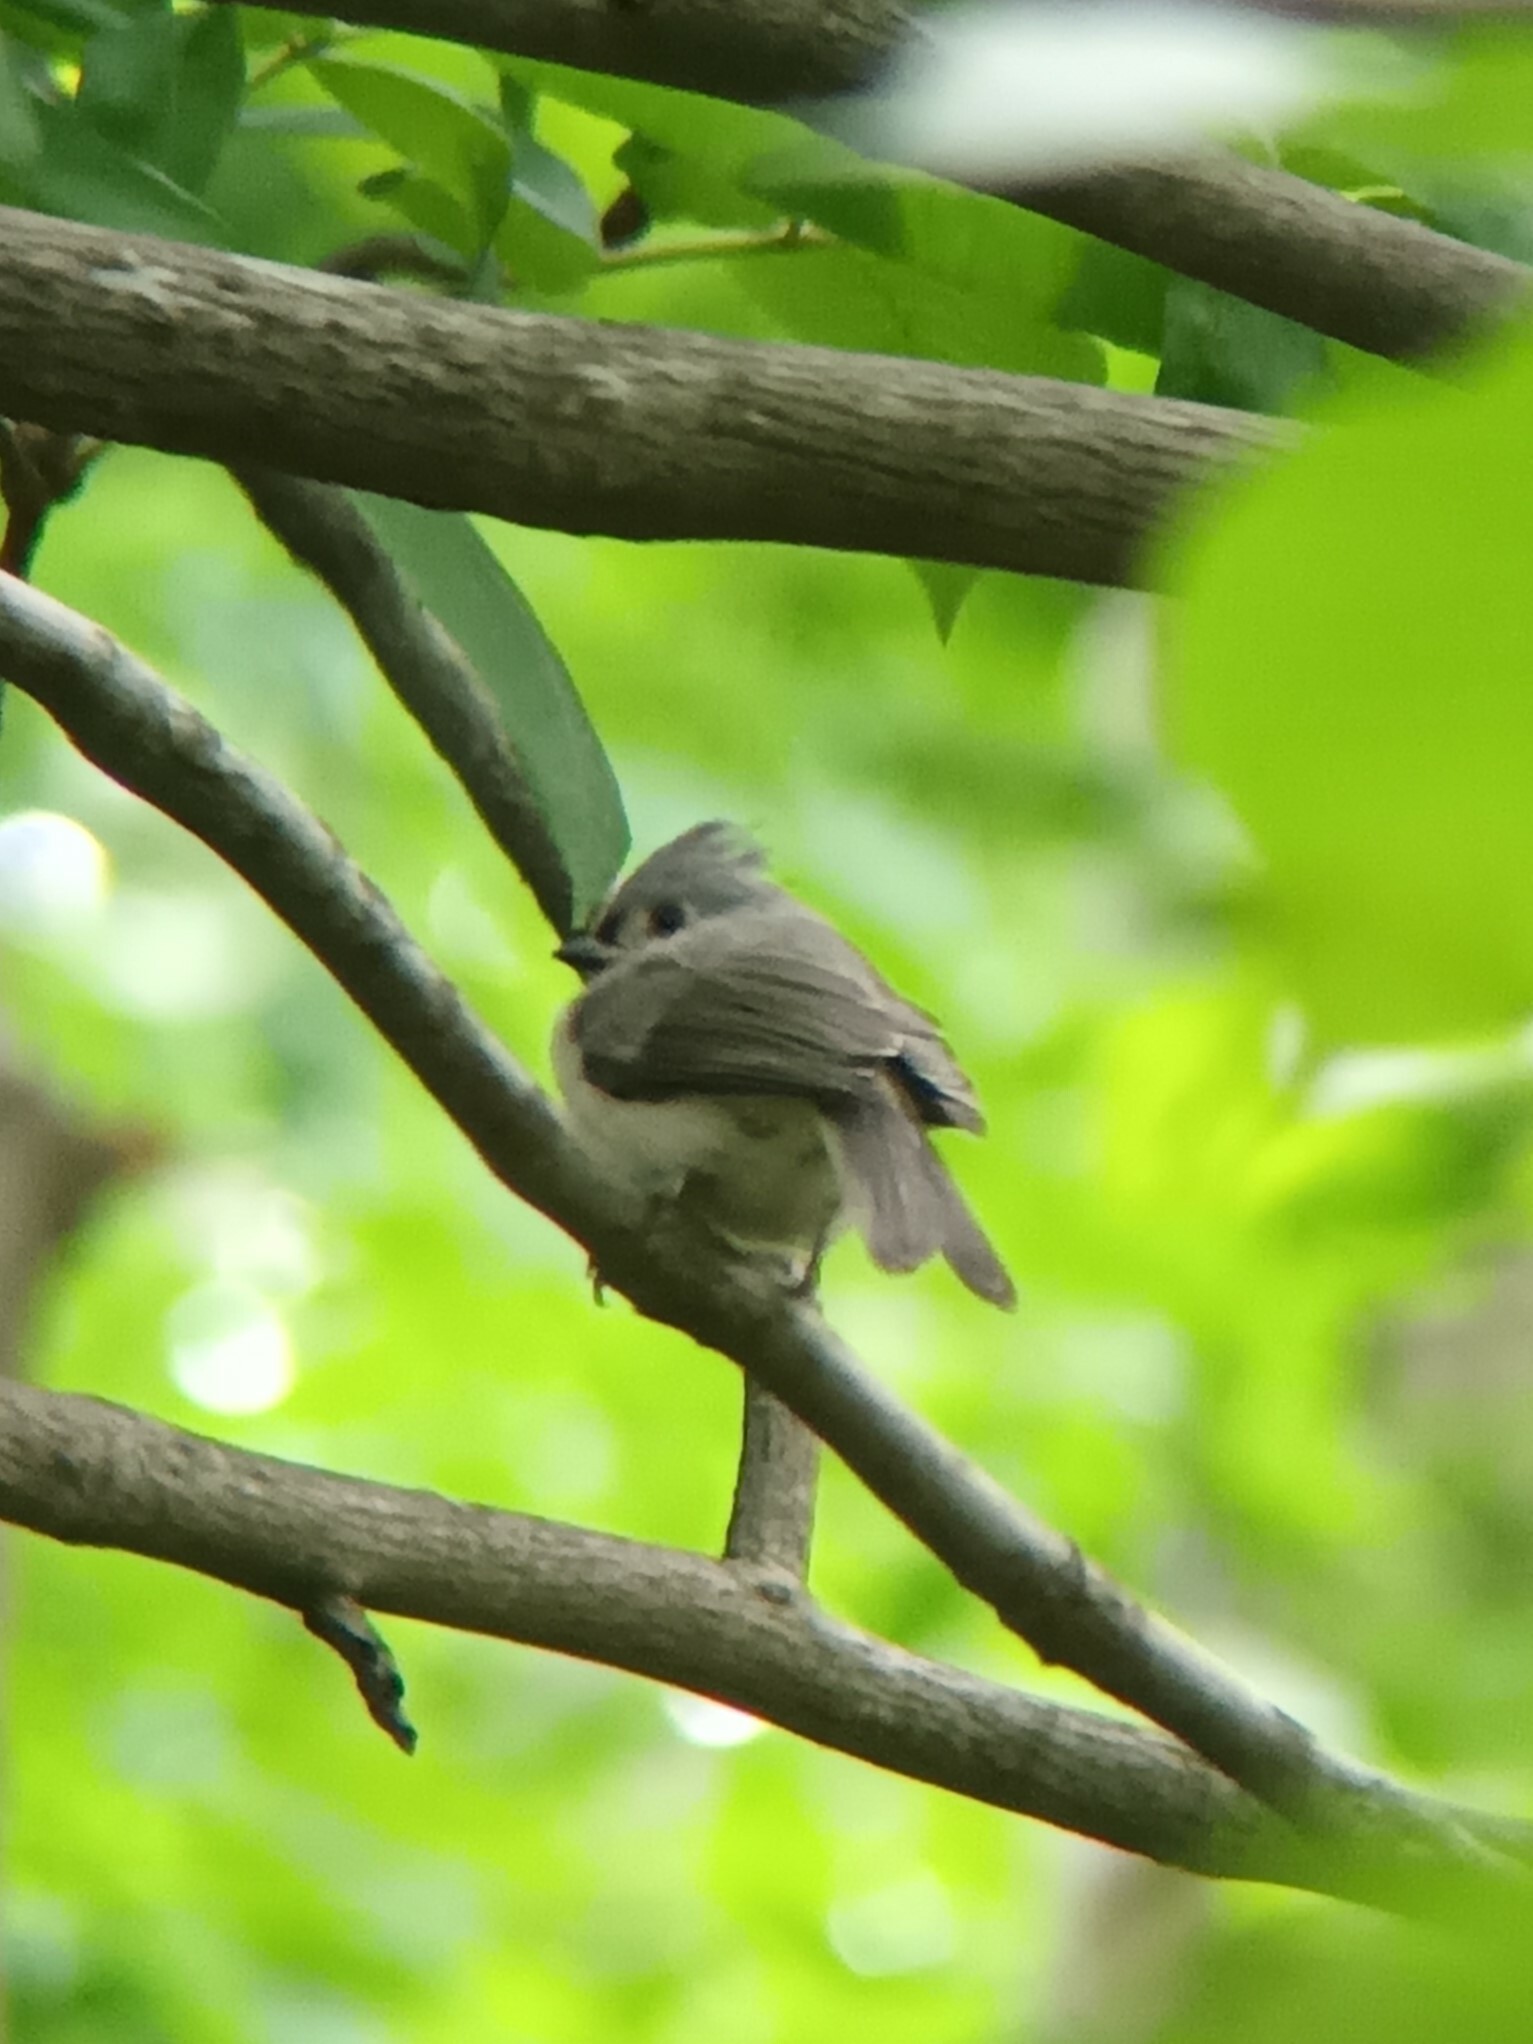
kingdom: Animalia
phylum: Chordata
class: Aves
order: Passeriformes
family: Paridae
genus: Baeolophus
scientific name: Baeolophus bicolor
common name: Tufted titmouse
